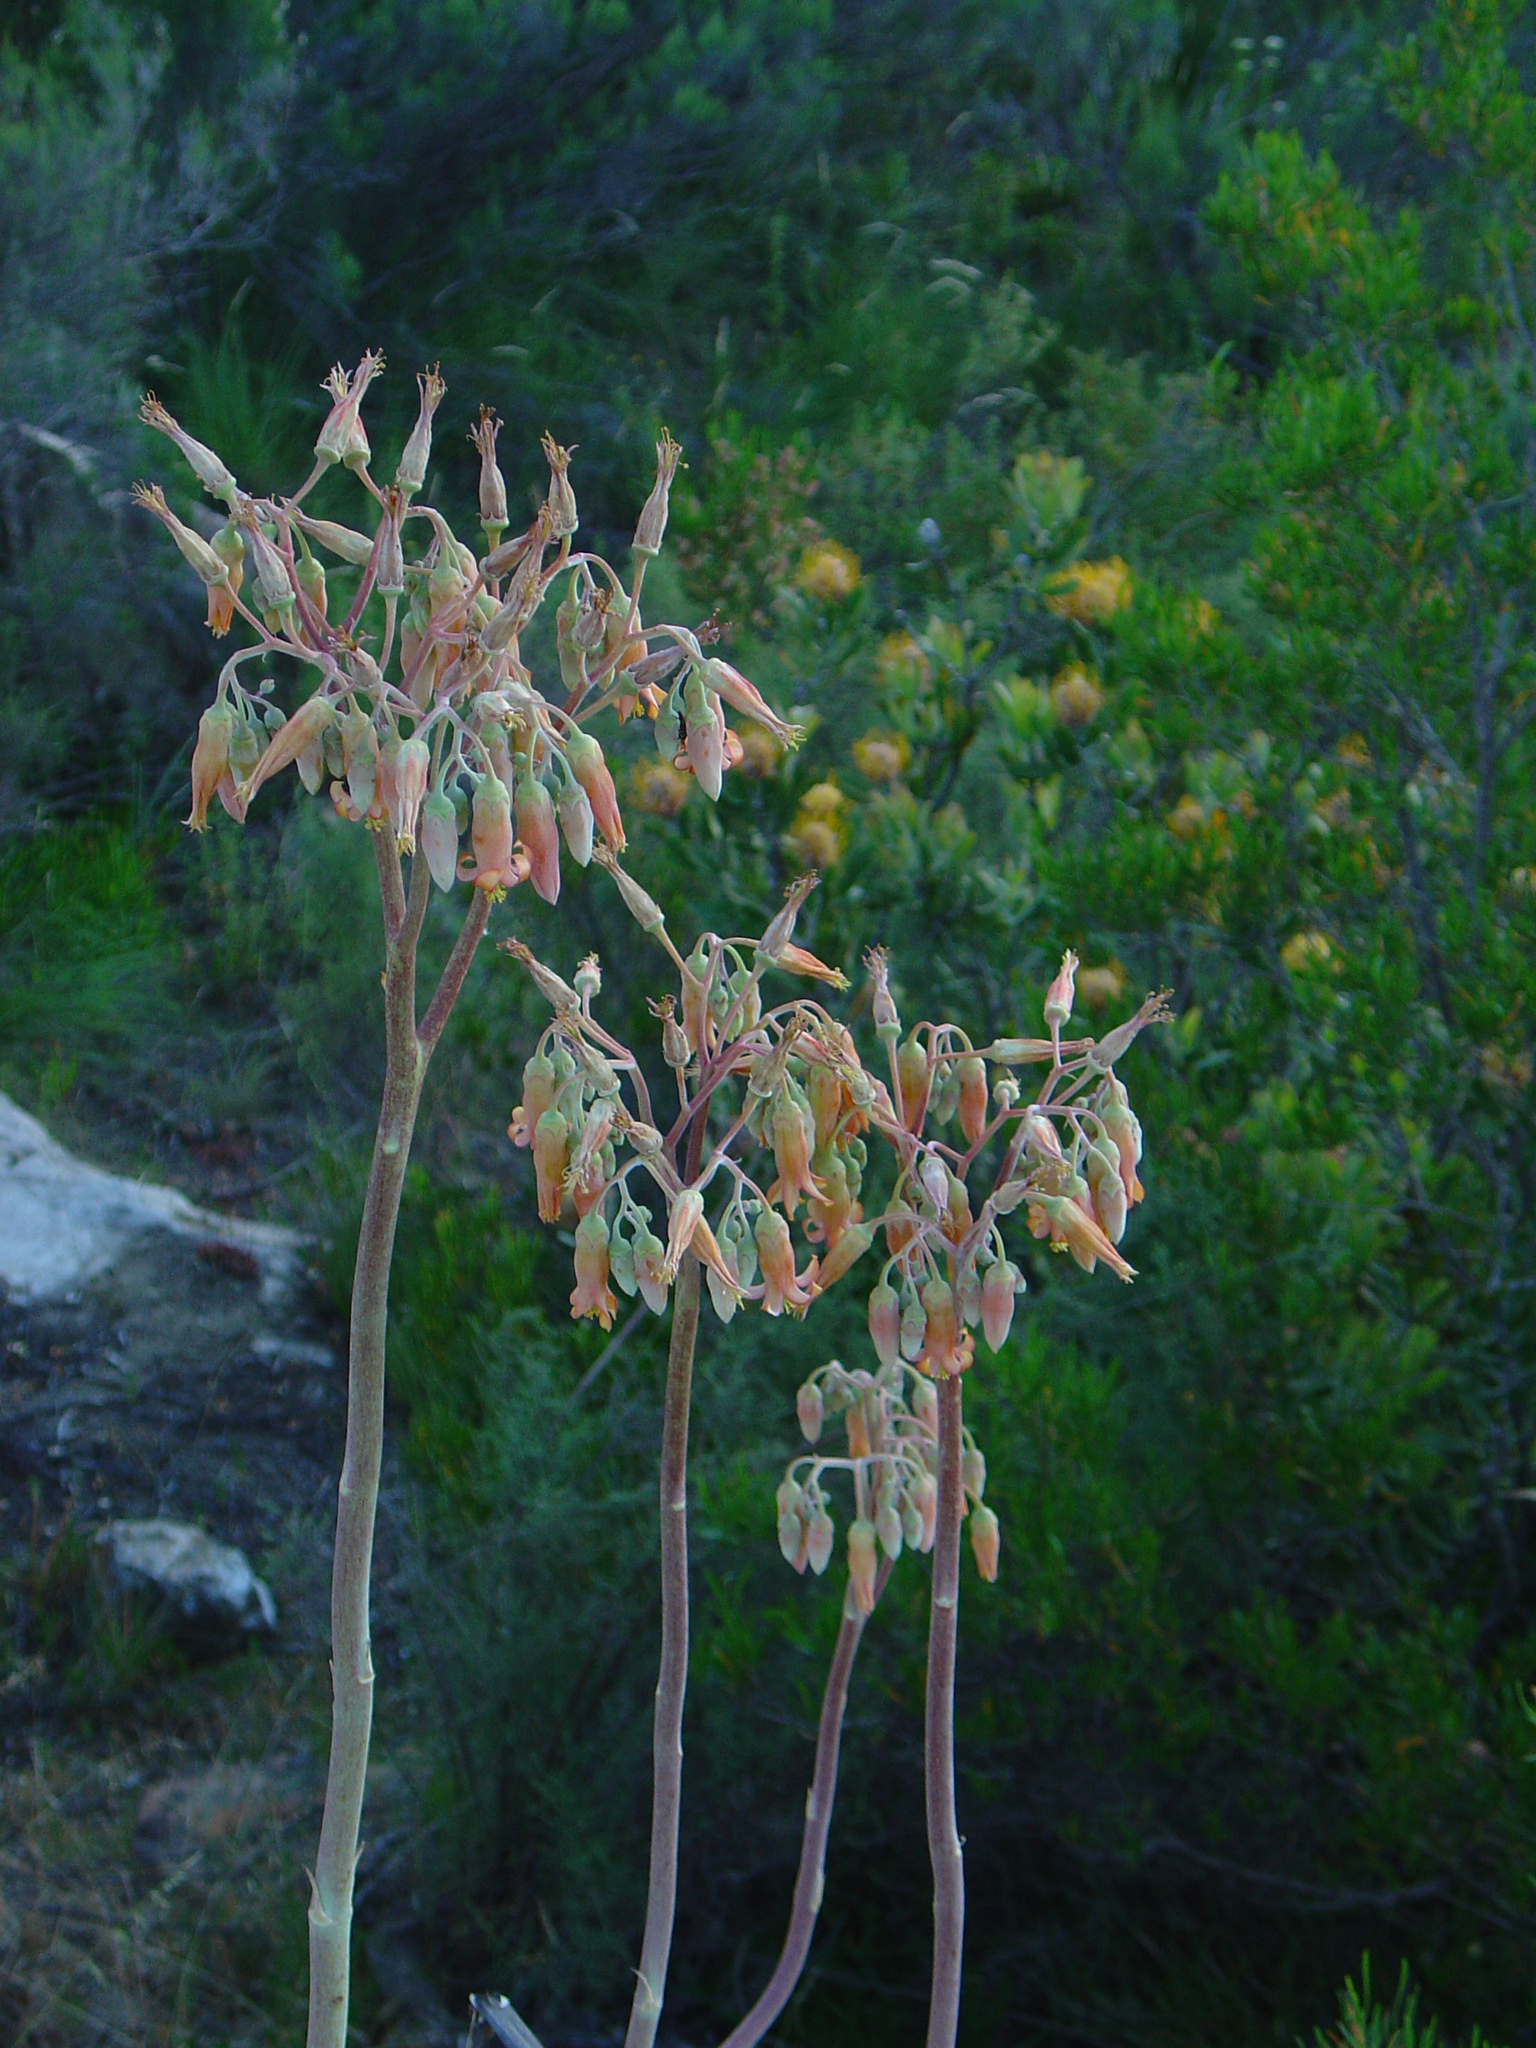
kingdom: Plantae
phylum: Tracheophyta
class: Magnoliopsida
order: Saxifragales
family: Crassulaceae
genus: Cotyledon
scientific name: Cotyledon orbiculata
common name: Pig's ear
